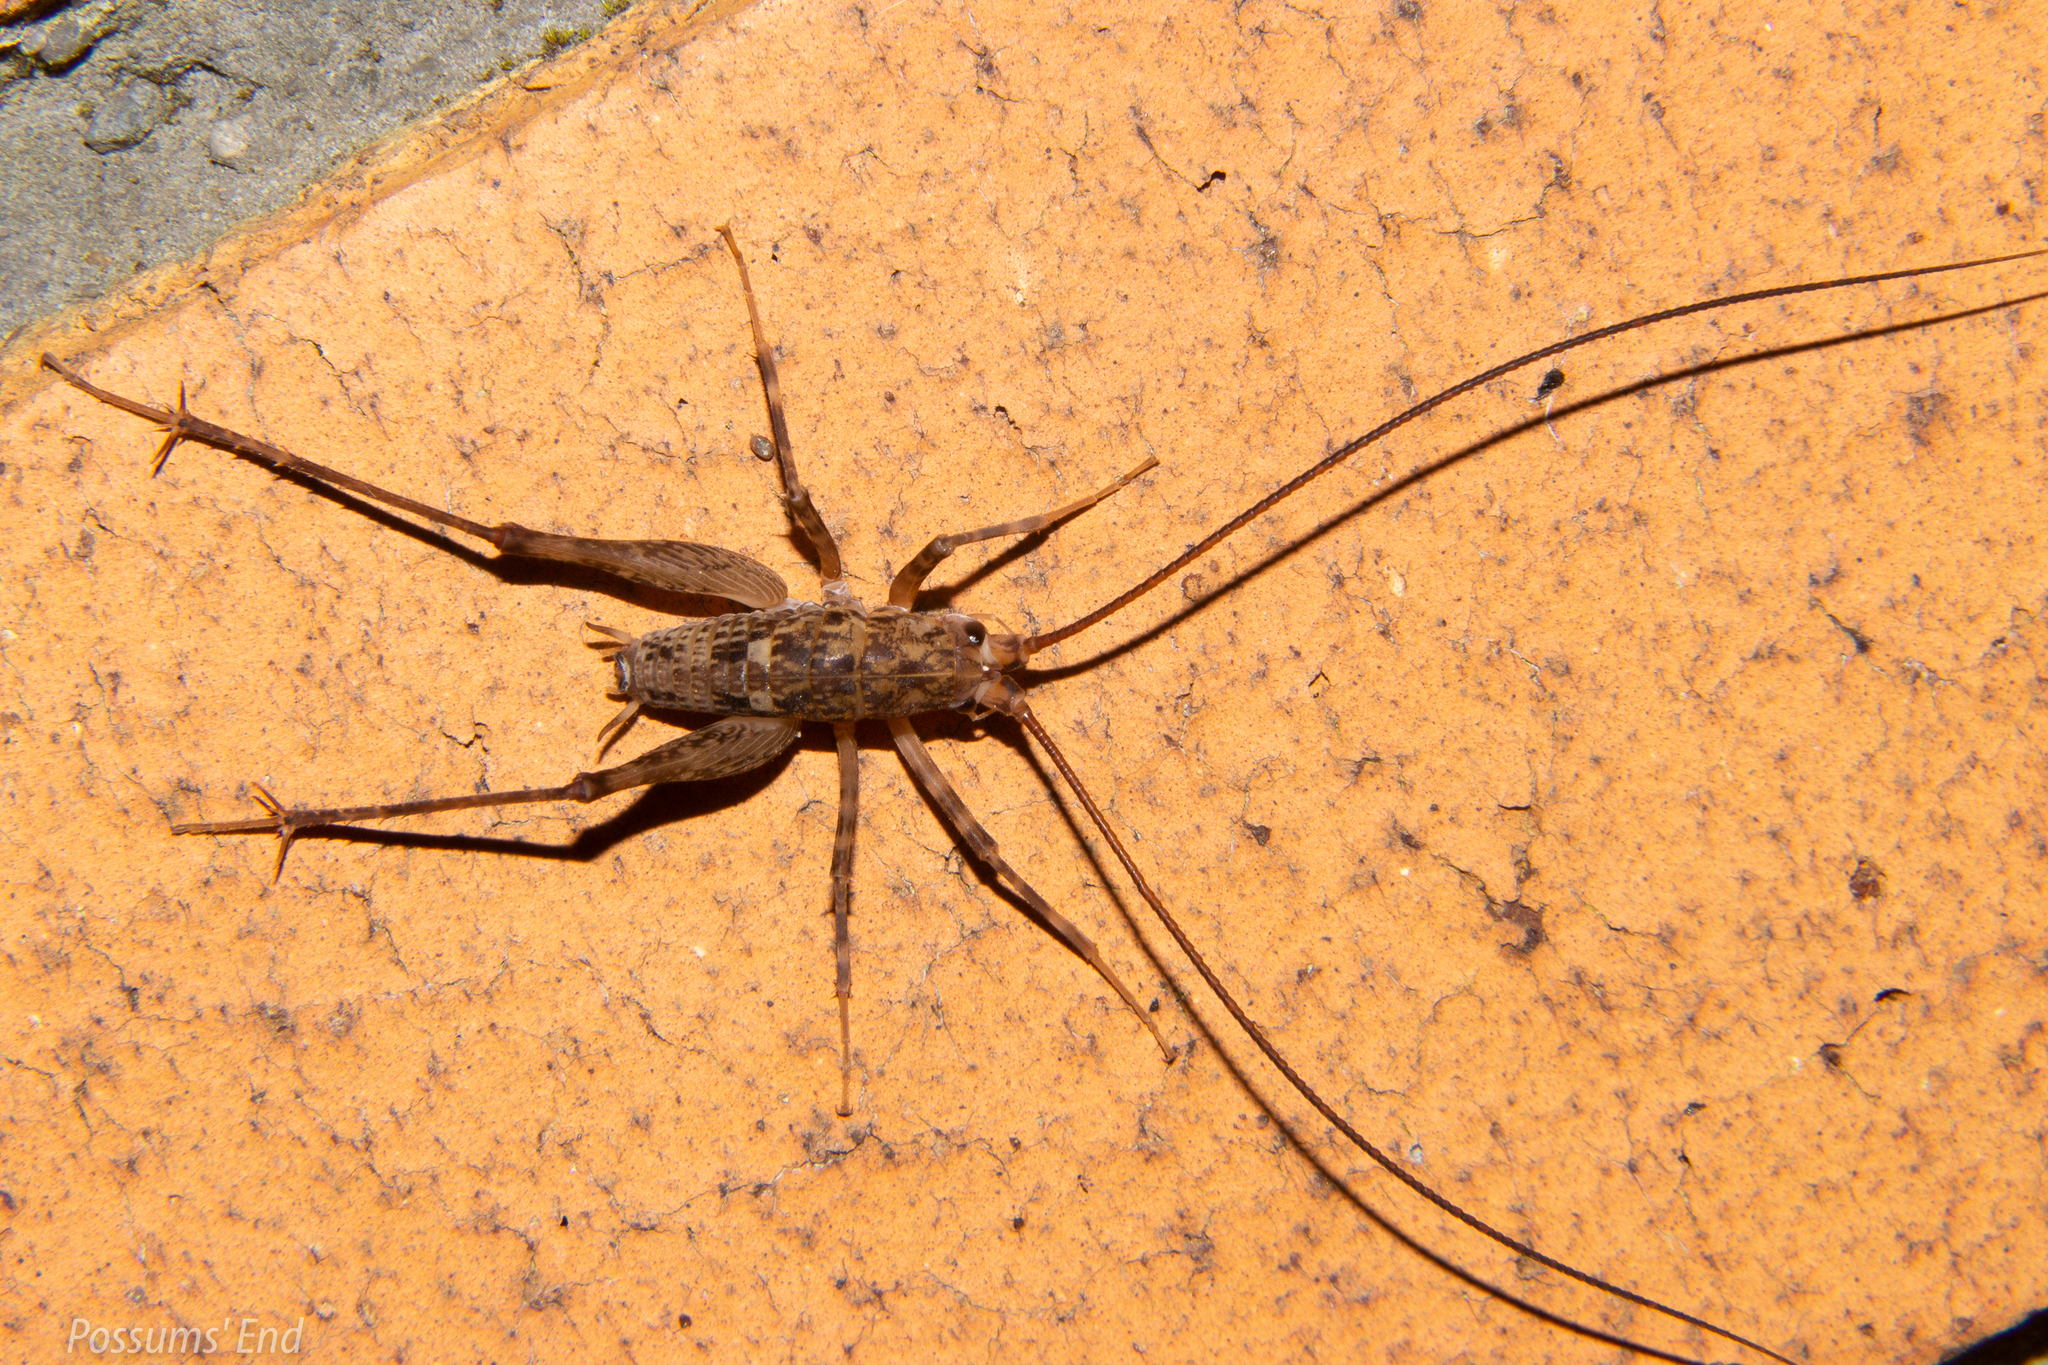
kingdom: Animalia
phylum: Arthropoda
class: Insecta
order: Orthoptera
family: Rhaphidophoridae
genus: Pleioplectron
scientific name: Pleioplectron simplex
